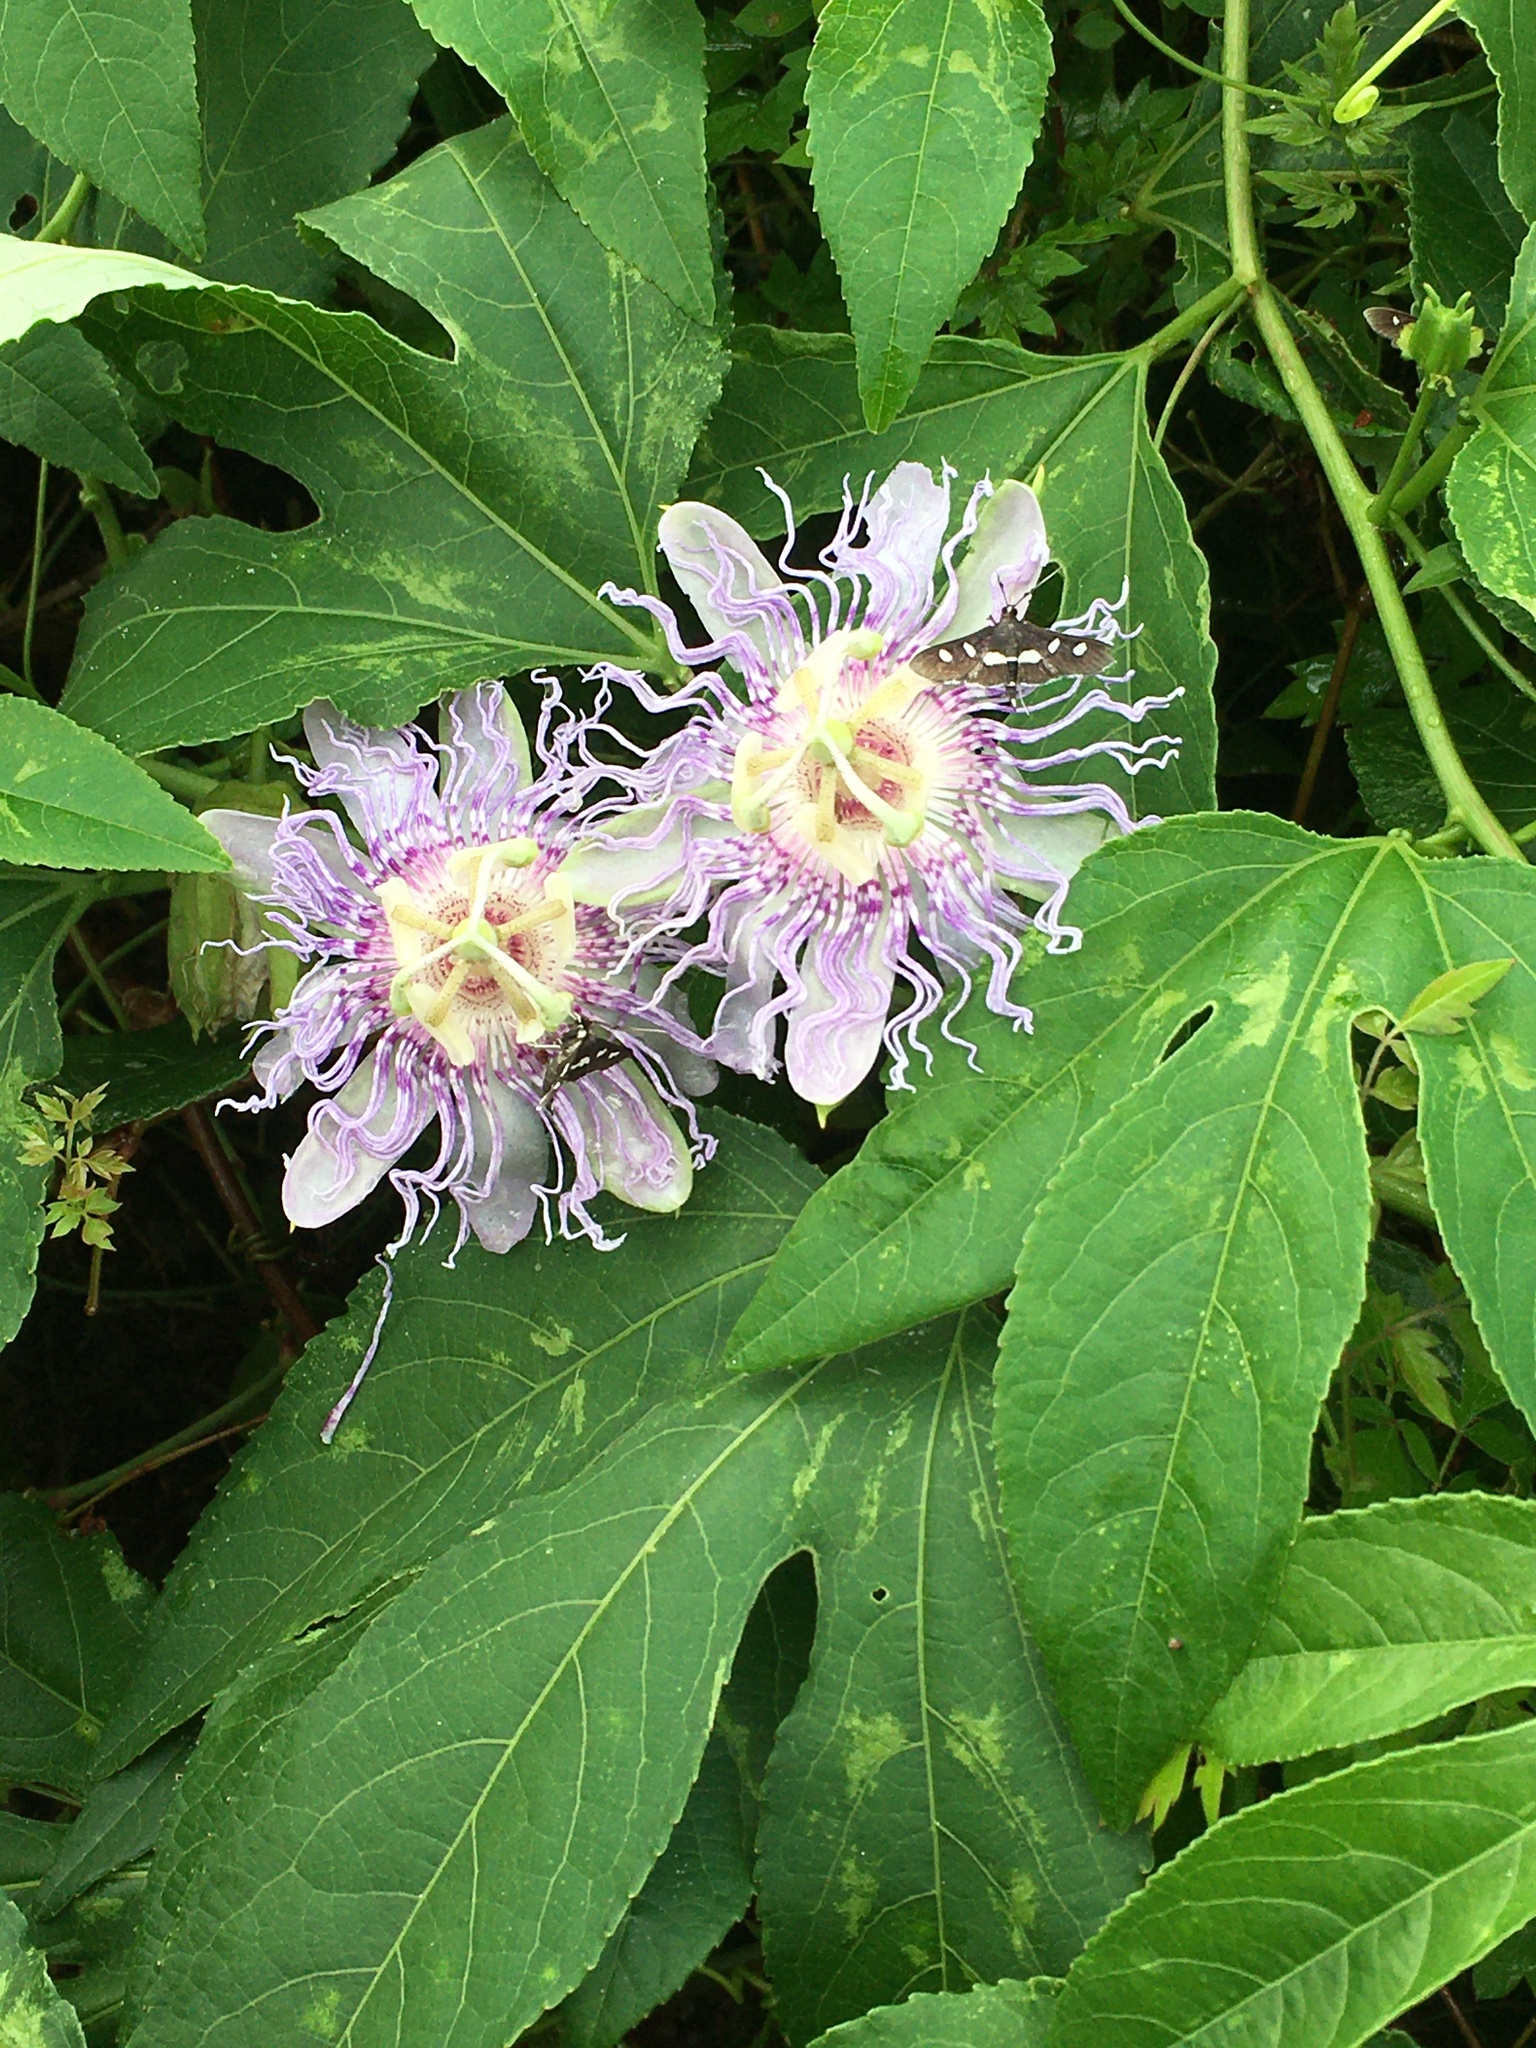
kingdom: Plantae
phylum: Tracheophyta
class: Magnoliopsida
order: Malpighiales
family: Passifloraceae
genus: Passiflora
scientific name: Passiflora incarnata
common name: Apricot-vine
